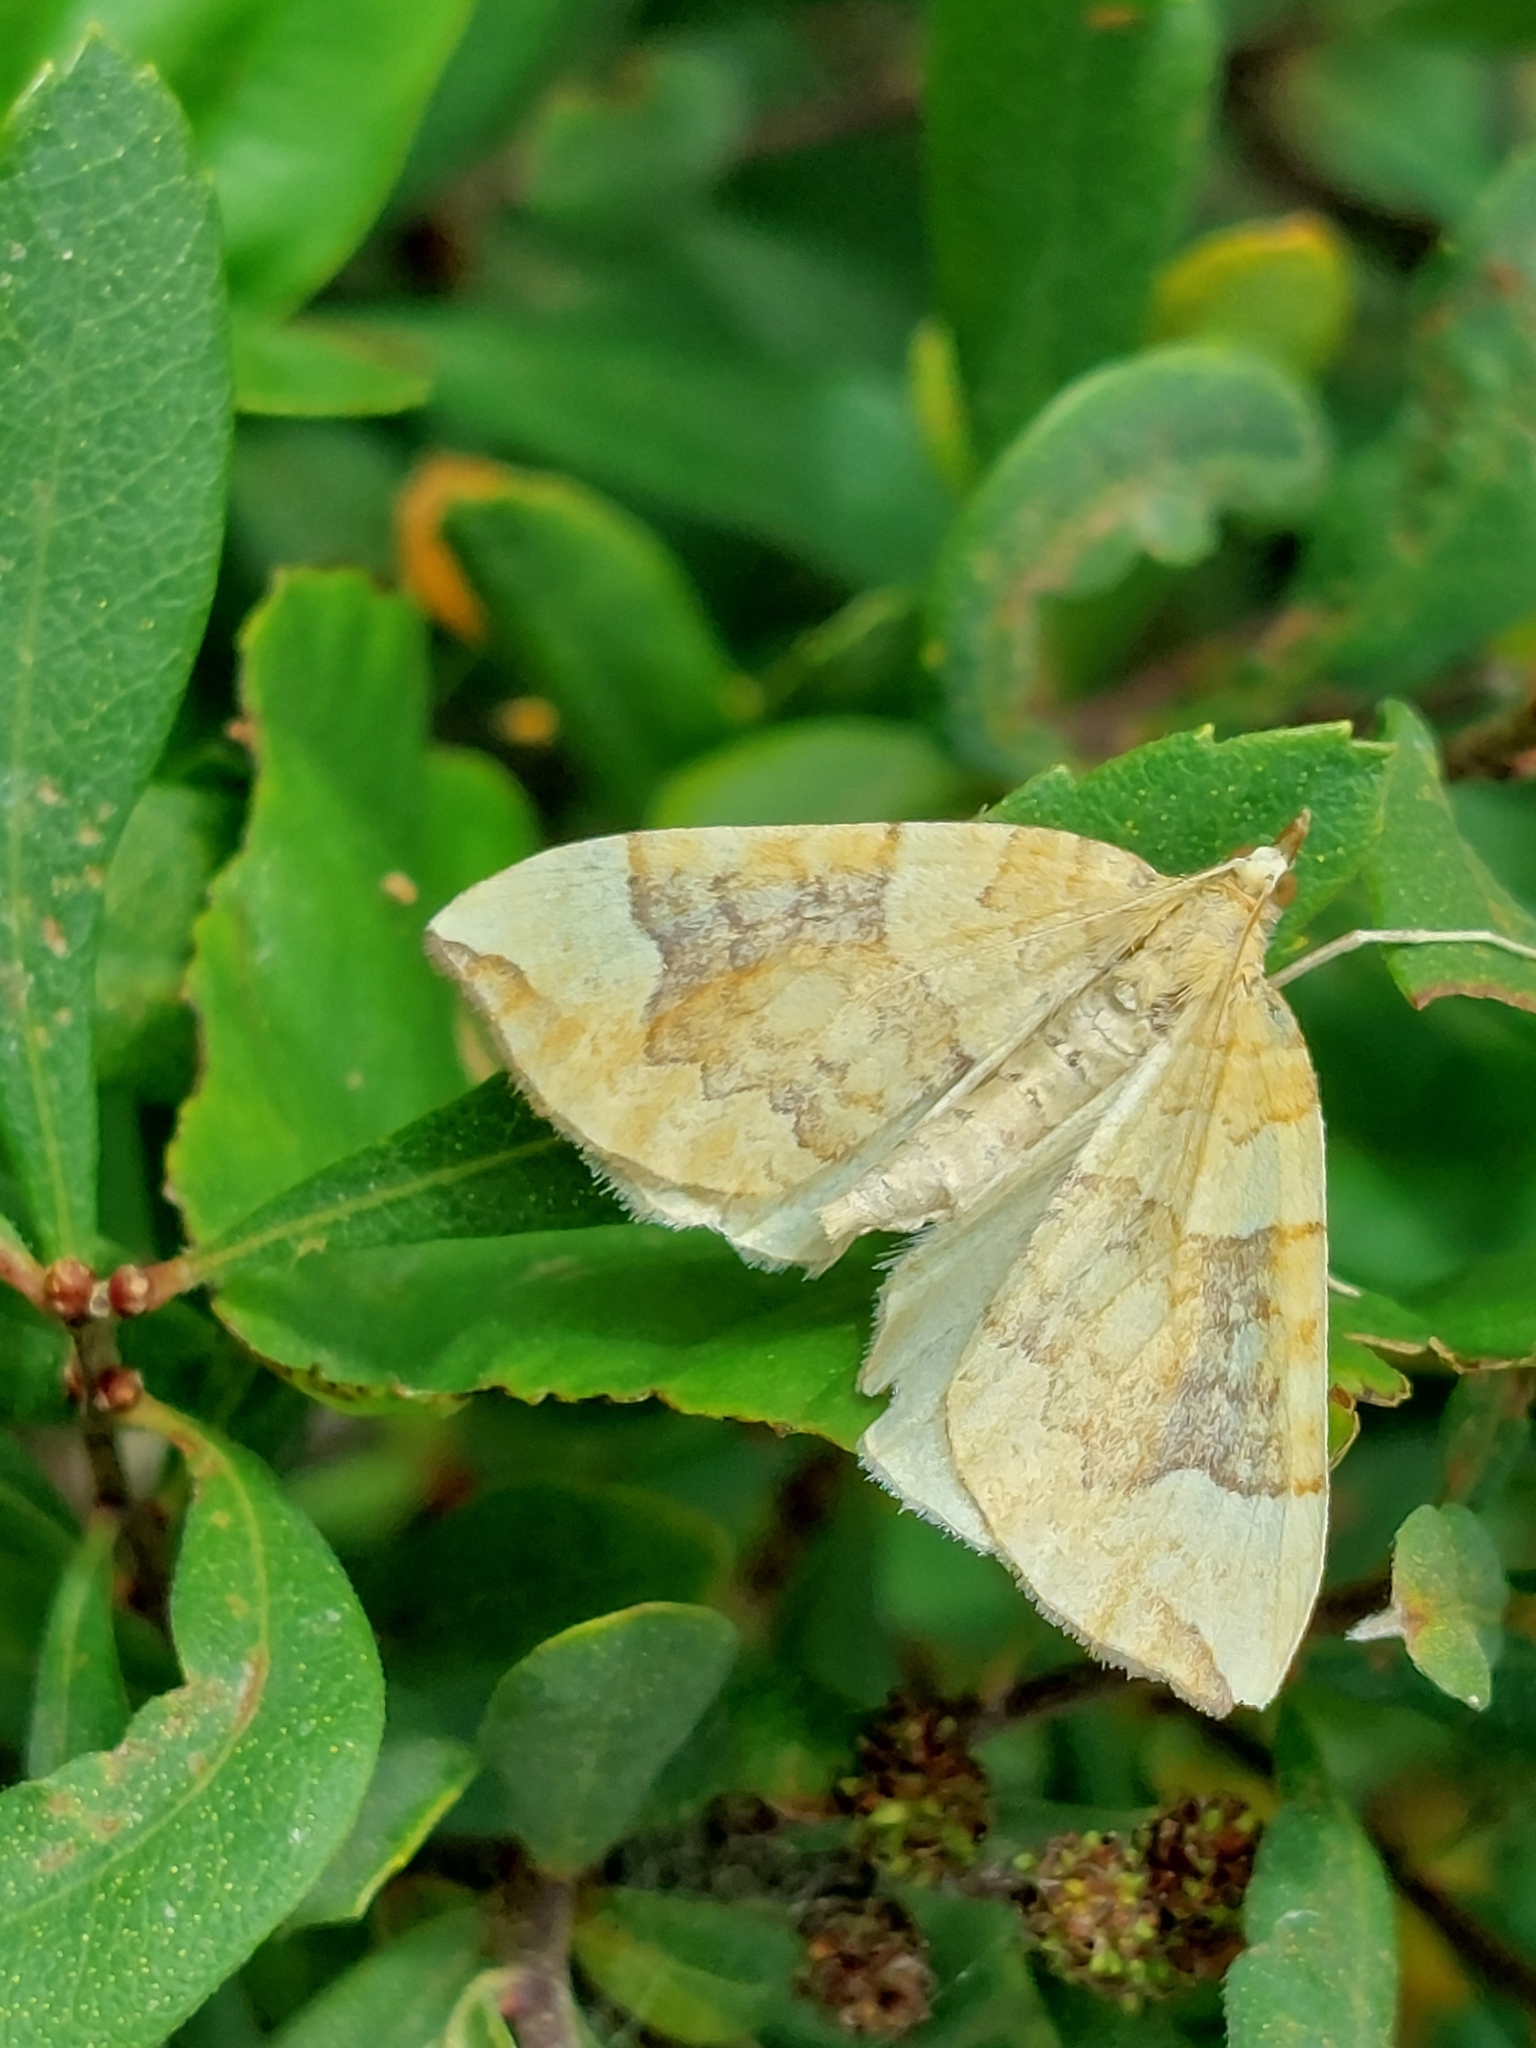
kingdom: Animalia
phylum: Arthropoda
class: Insecta
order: Lepidoptera
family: Geometridae
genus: Eulithis
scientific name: Eulithis populata
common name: Northern spinach
